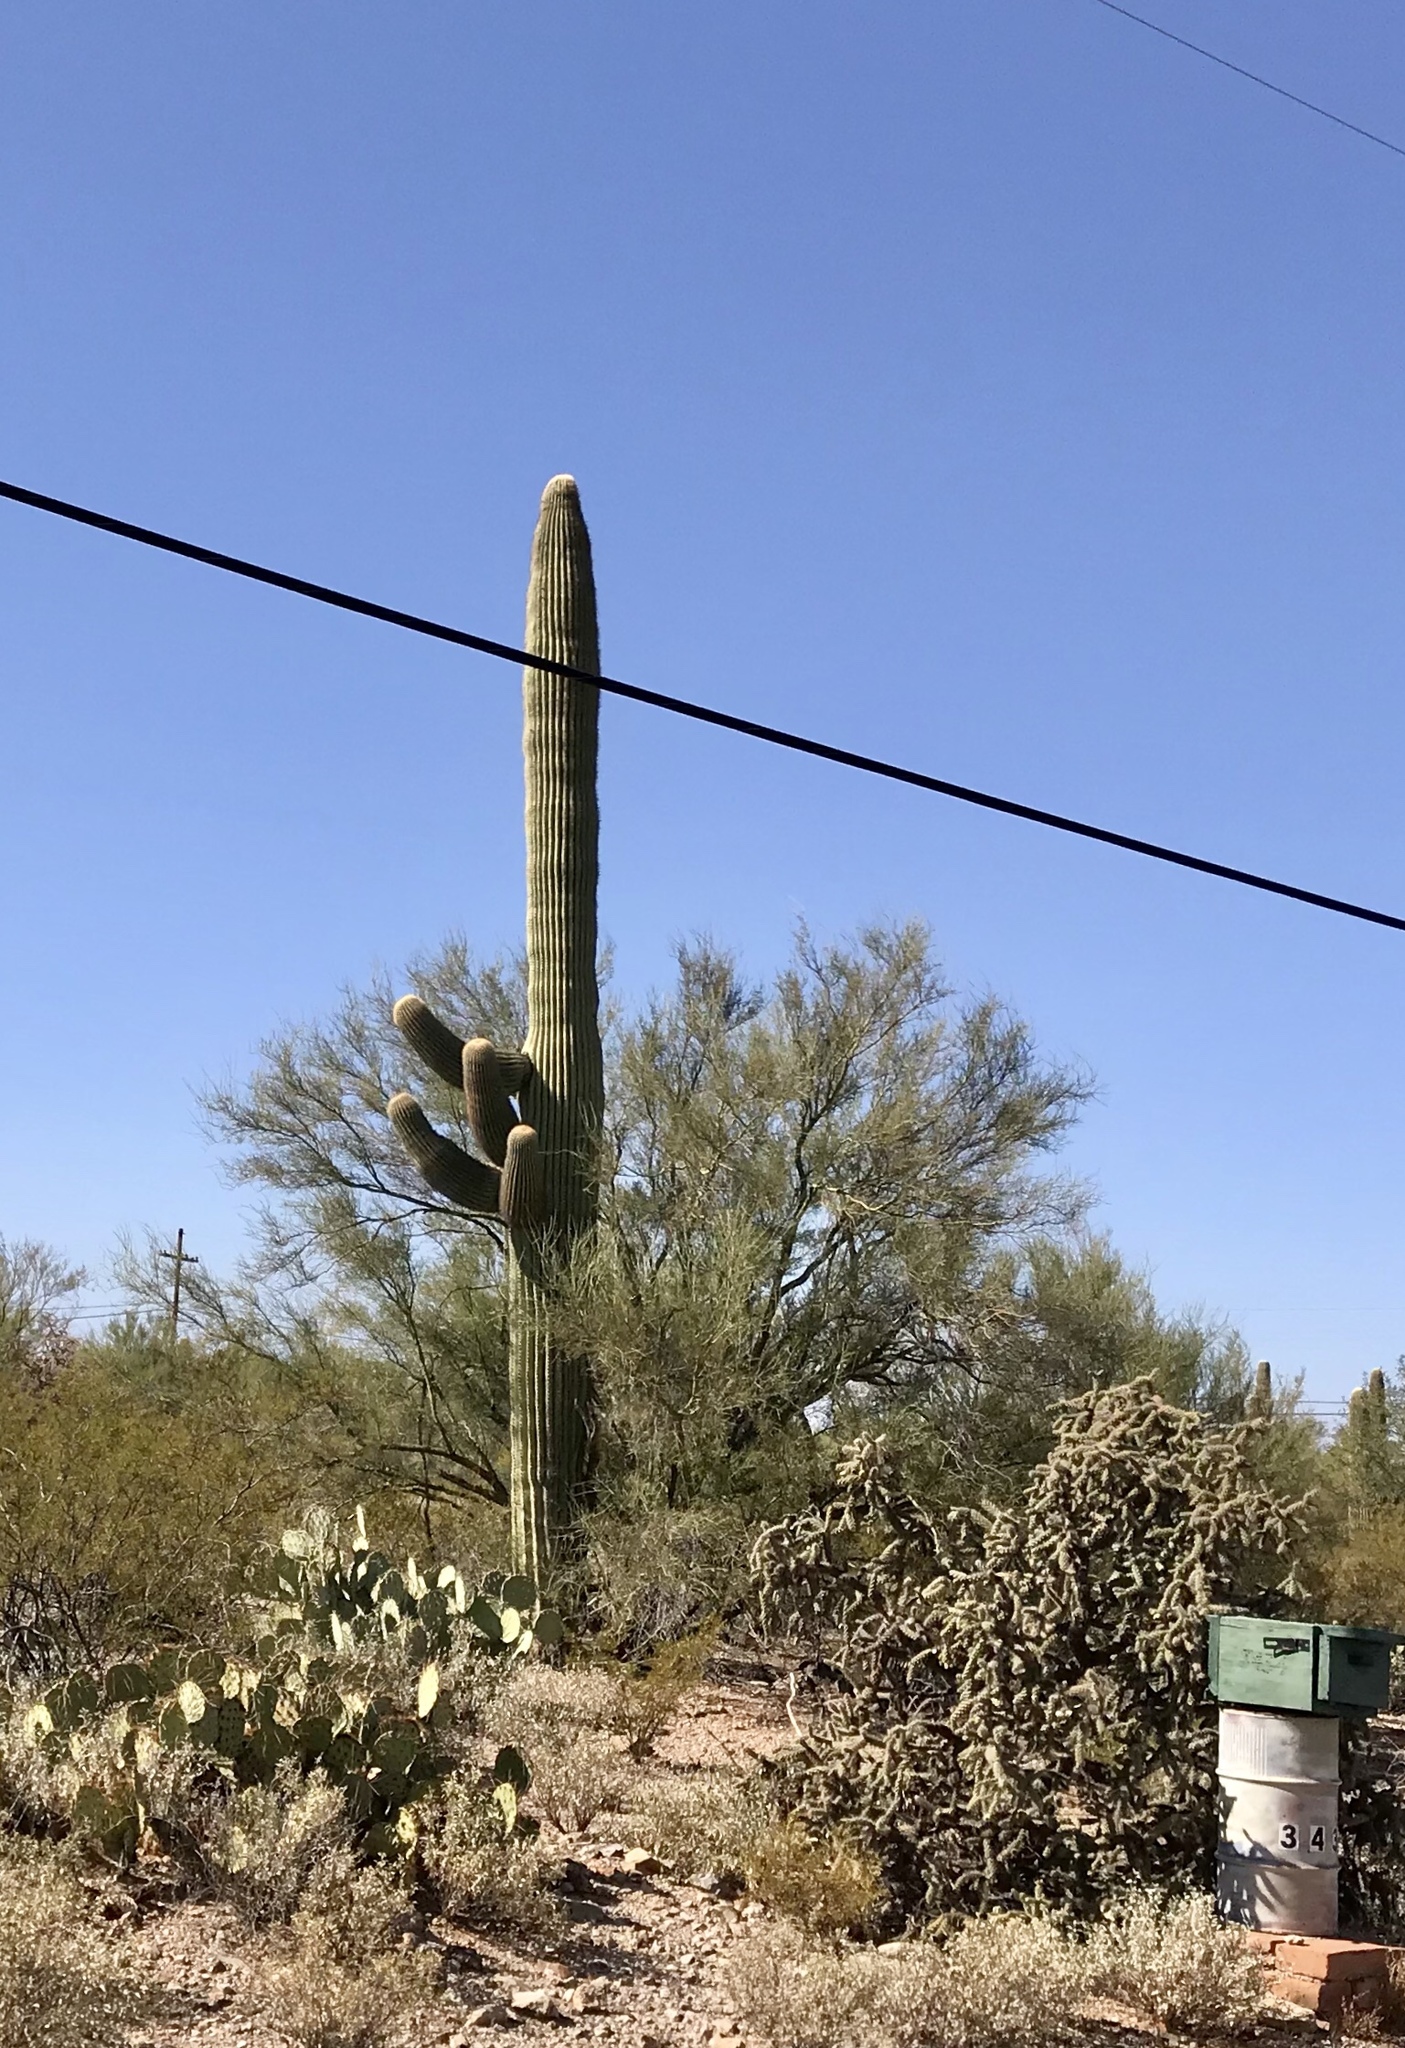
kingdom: Plantae
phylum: Tracheophyta
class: Magnoliopsida
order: Caryophyllales
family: Cactaceae
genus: Carnegiea
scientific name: Carnegiea gigantea
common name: Saguaro
